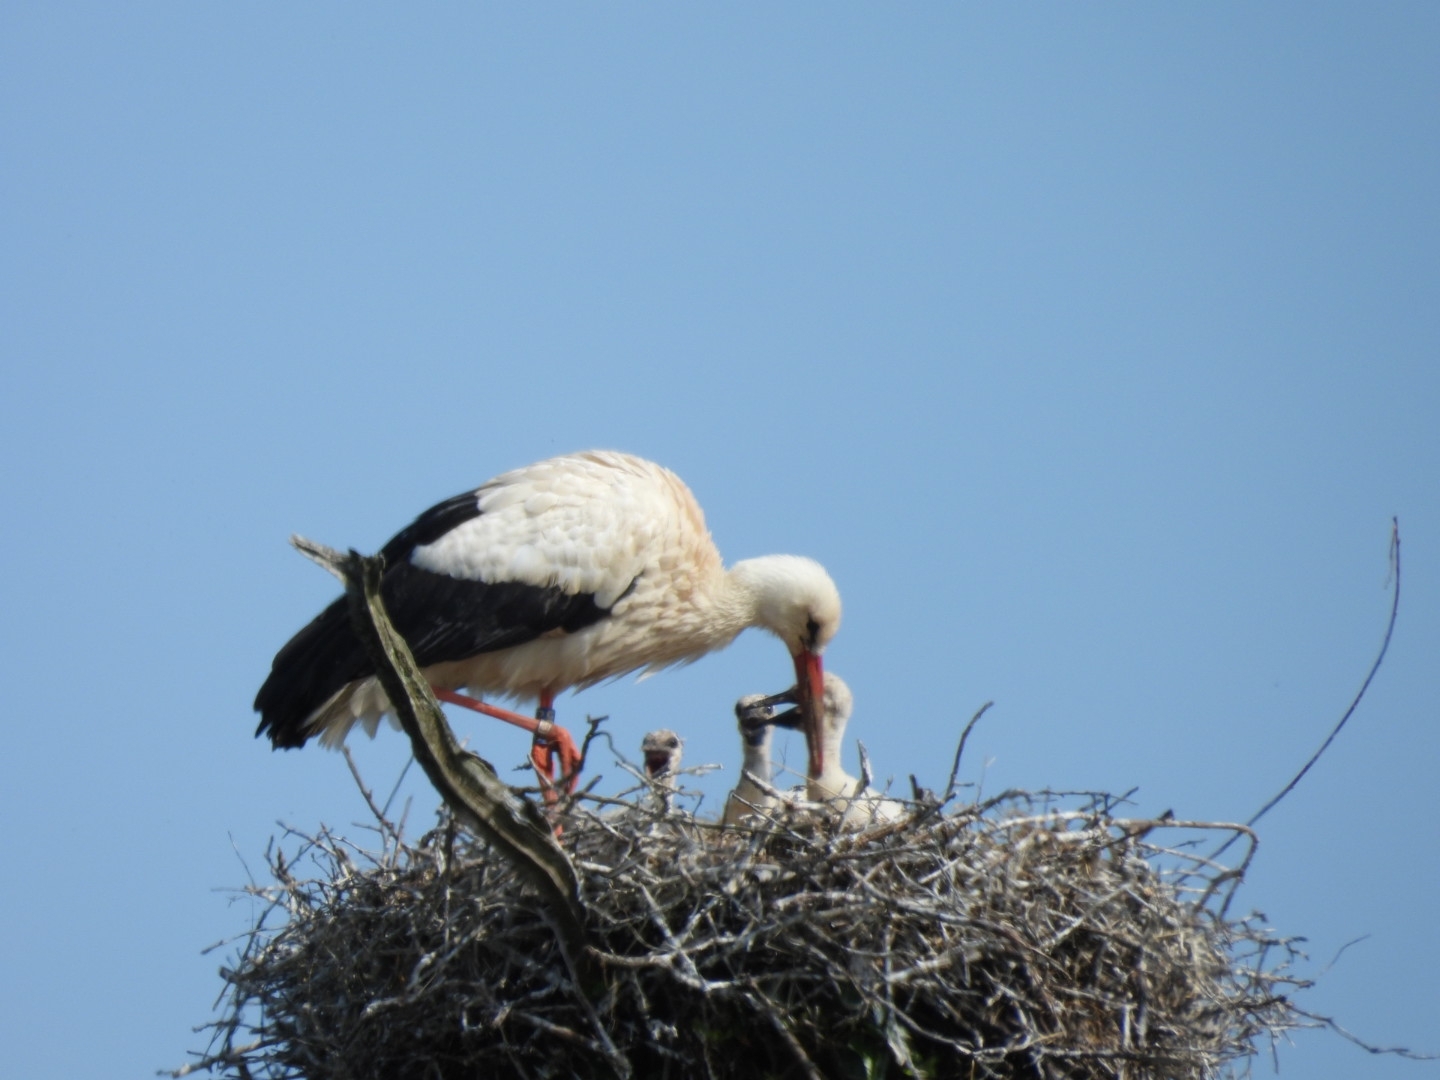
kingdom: Animalia
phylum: Chordata
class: Aves
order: Ciconiiformes
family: Ciconiidae
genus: Ciconia
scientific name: Ciconia ciconia
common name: White stork
